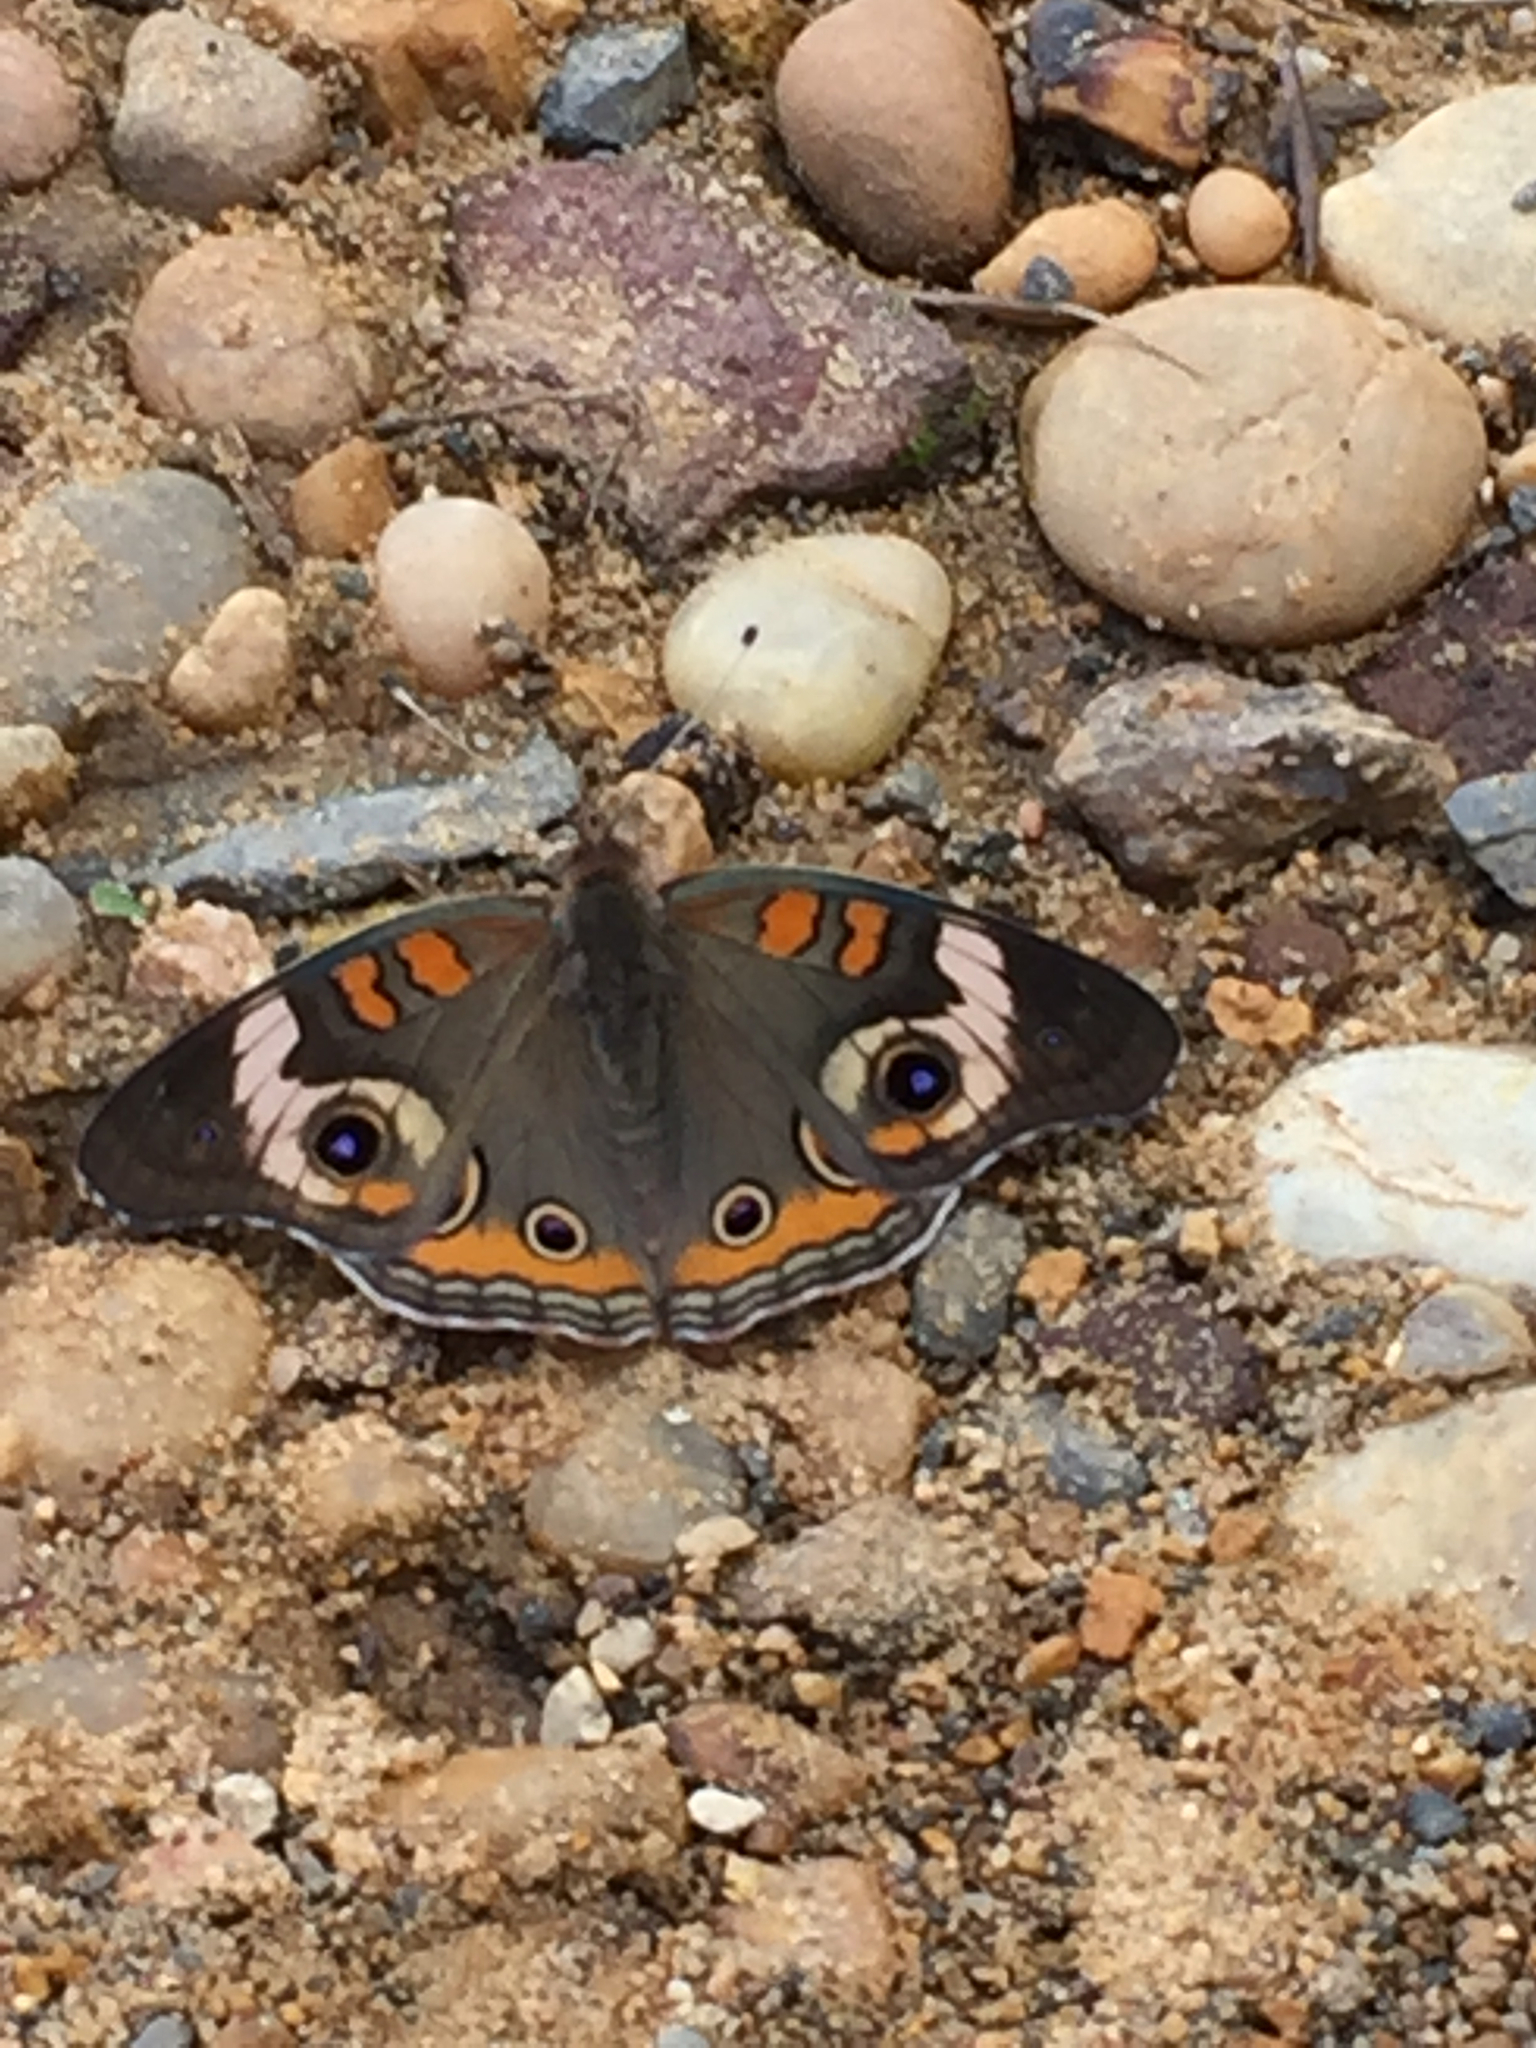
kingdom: Animalia
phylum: Arthropoda
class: Insecta
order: Lepidoptera
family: Nymphalidae
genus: Junonia
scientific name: Junonia coenia
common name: Common buckeye
